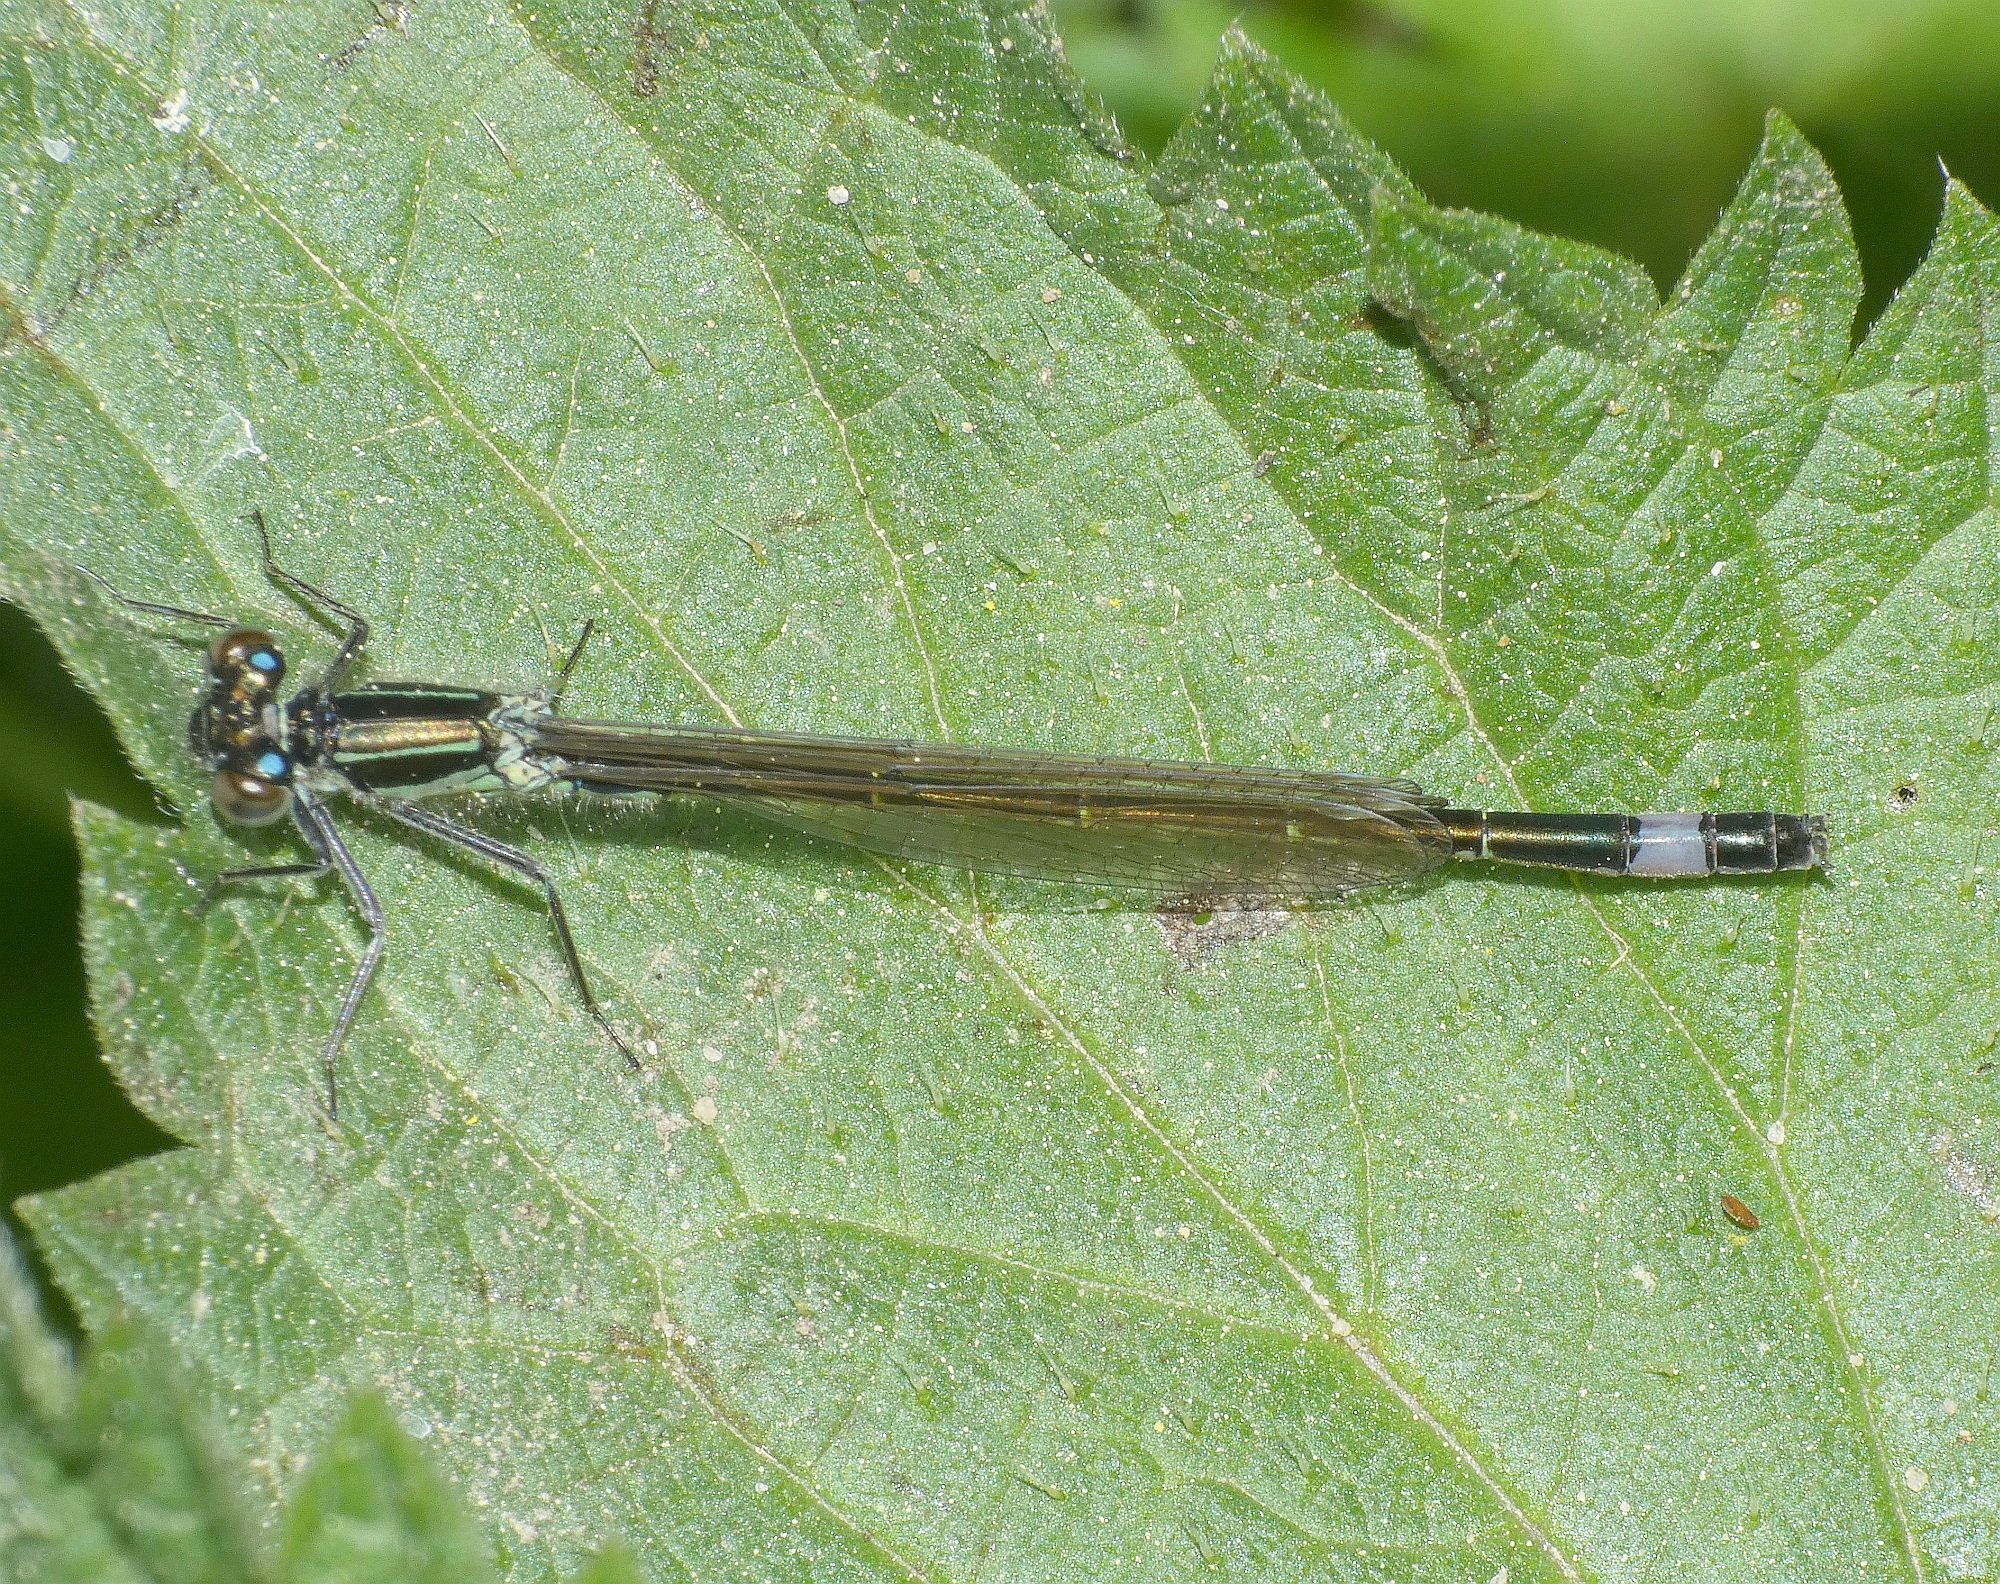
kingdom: Animalia
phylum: Arthropoda
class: Insecta
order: Odonata
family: Coenagrionidae
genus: Ischnura
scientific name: Ischnura elegans
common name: Blue-tailed damselfly
